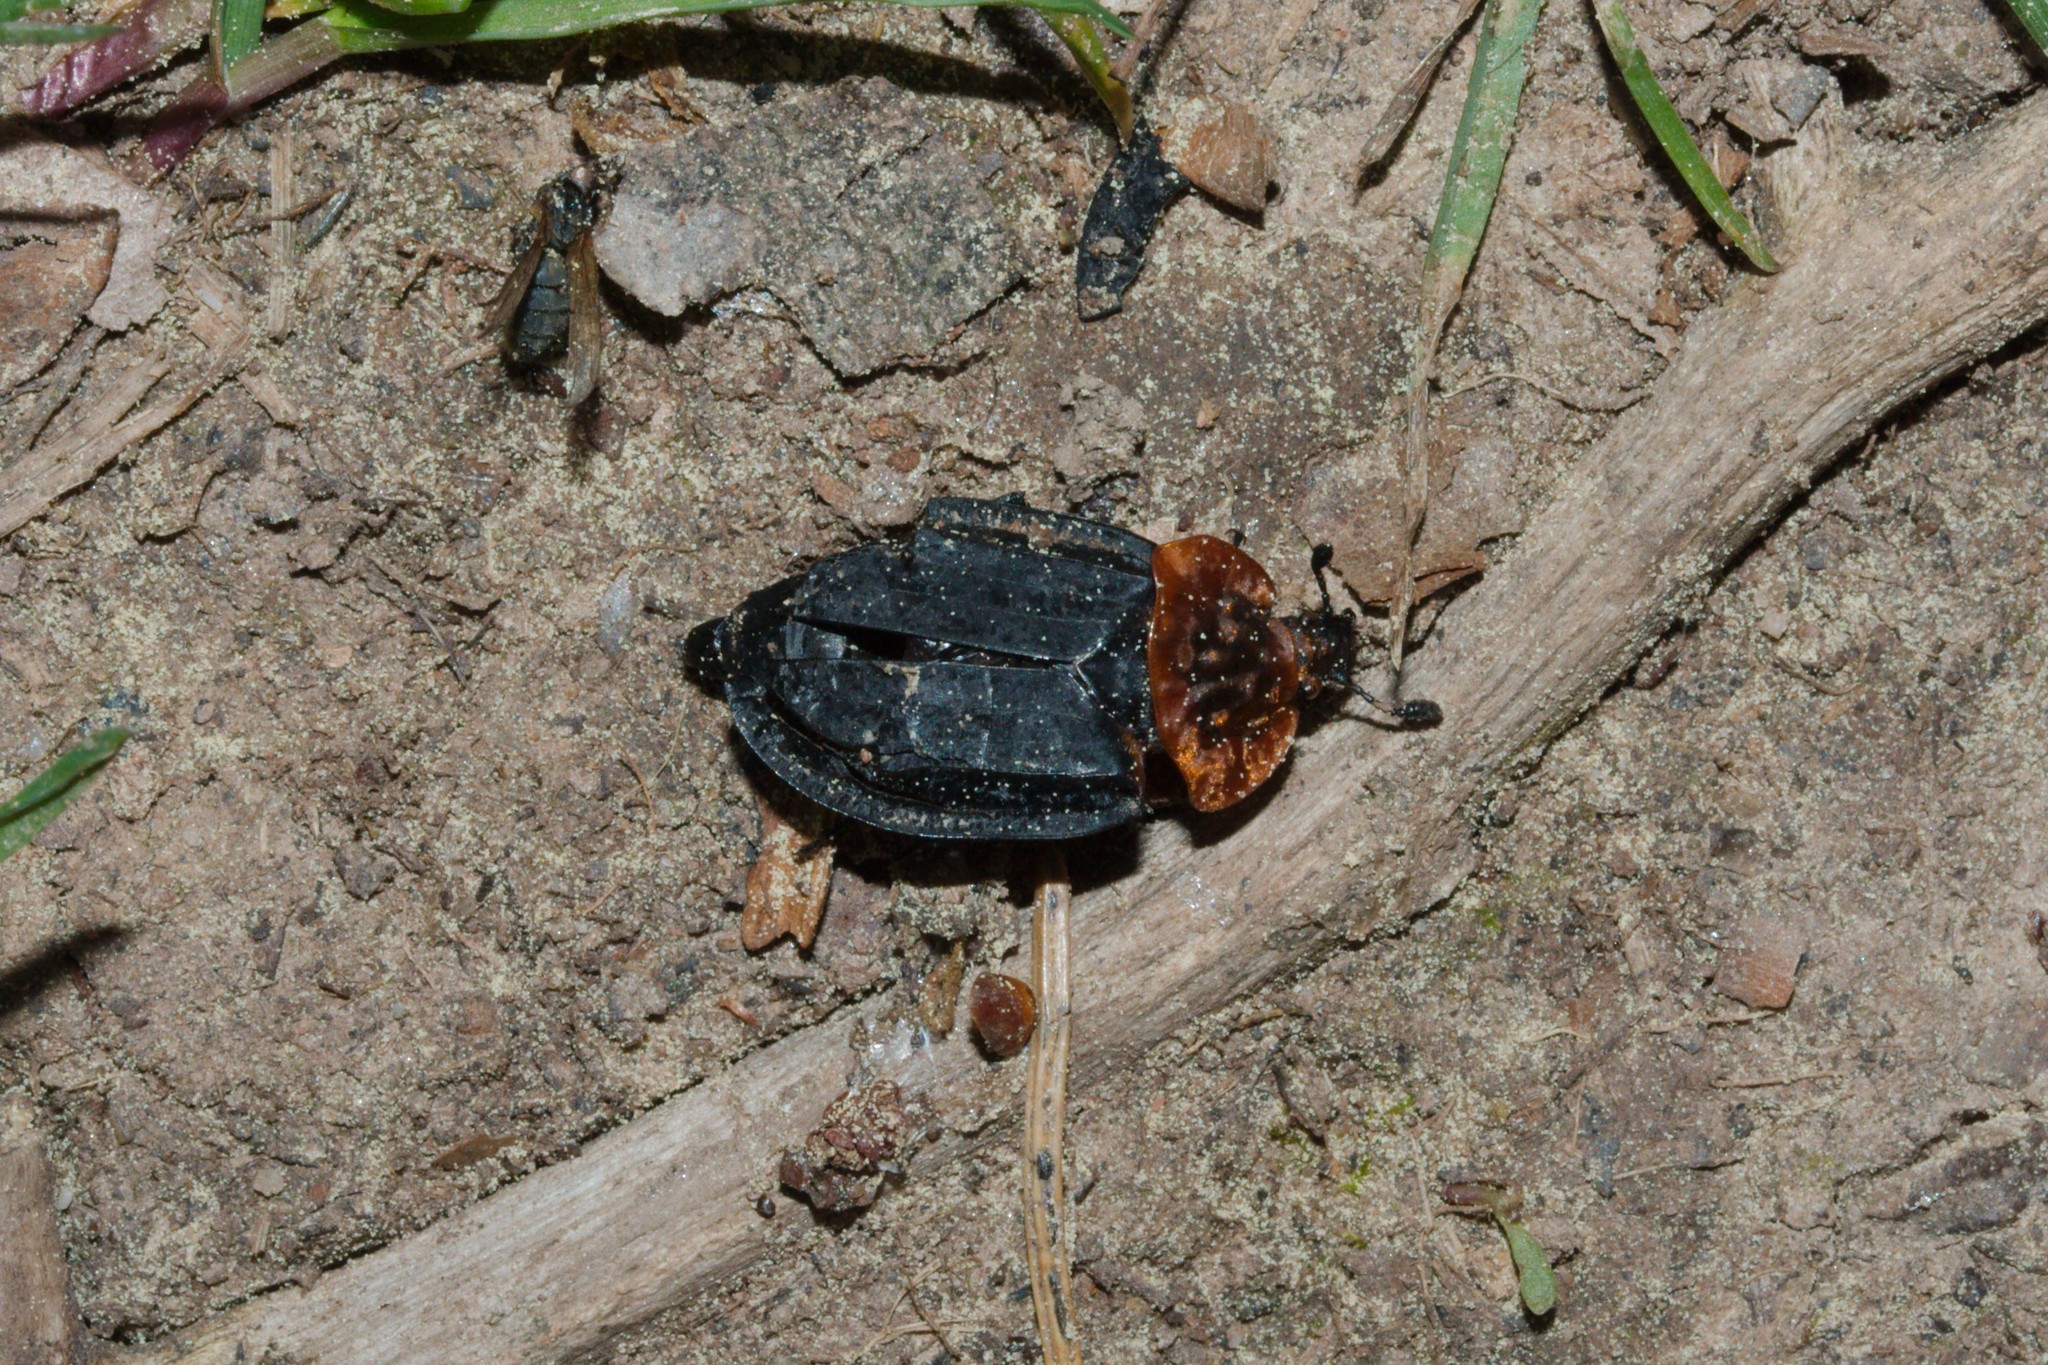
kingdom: Animalia
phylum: Arthropoda
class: Insecta
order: Coleoptera
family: Staphylinidae
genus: Oiceoptoma
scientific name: Oiceoptoma thoracicum
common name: Red-breasted carrion beetle
